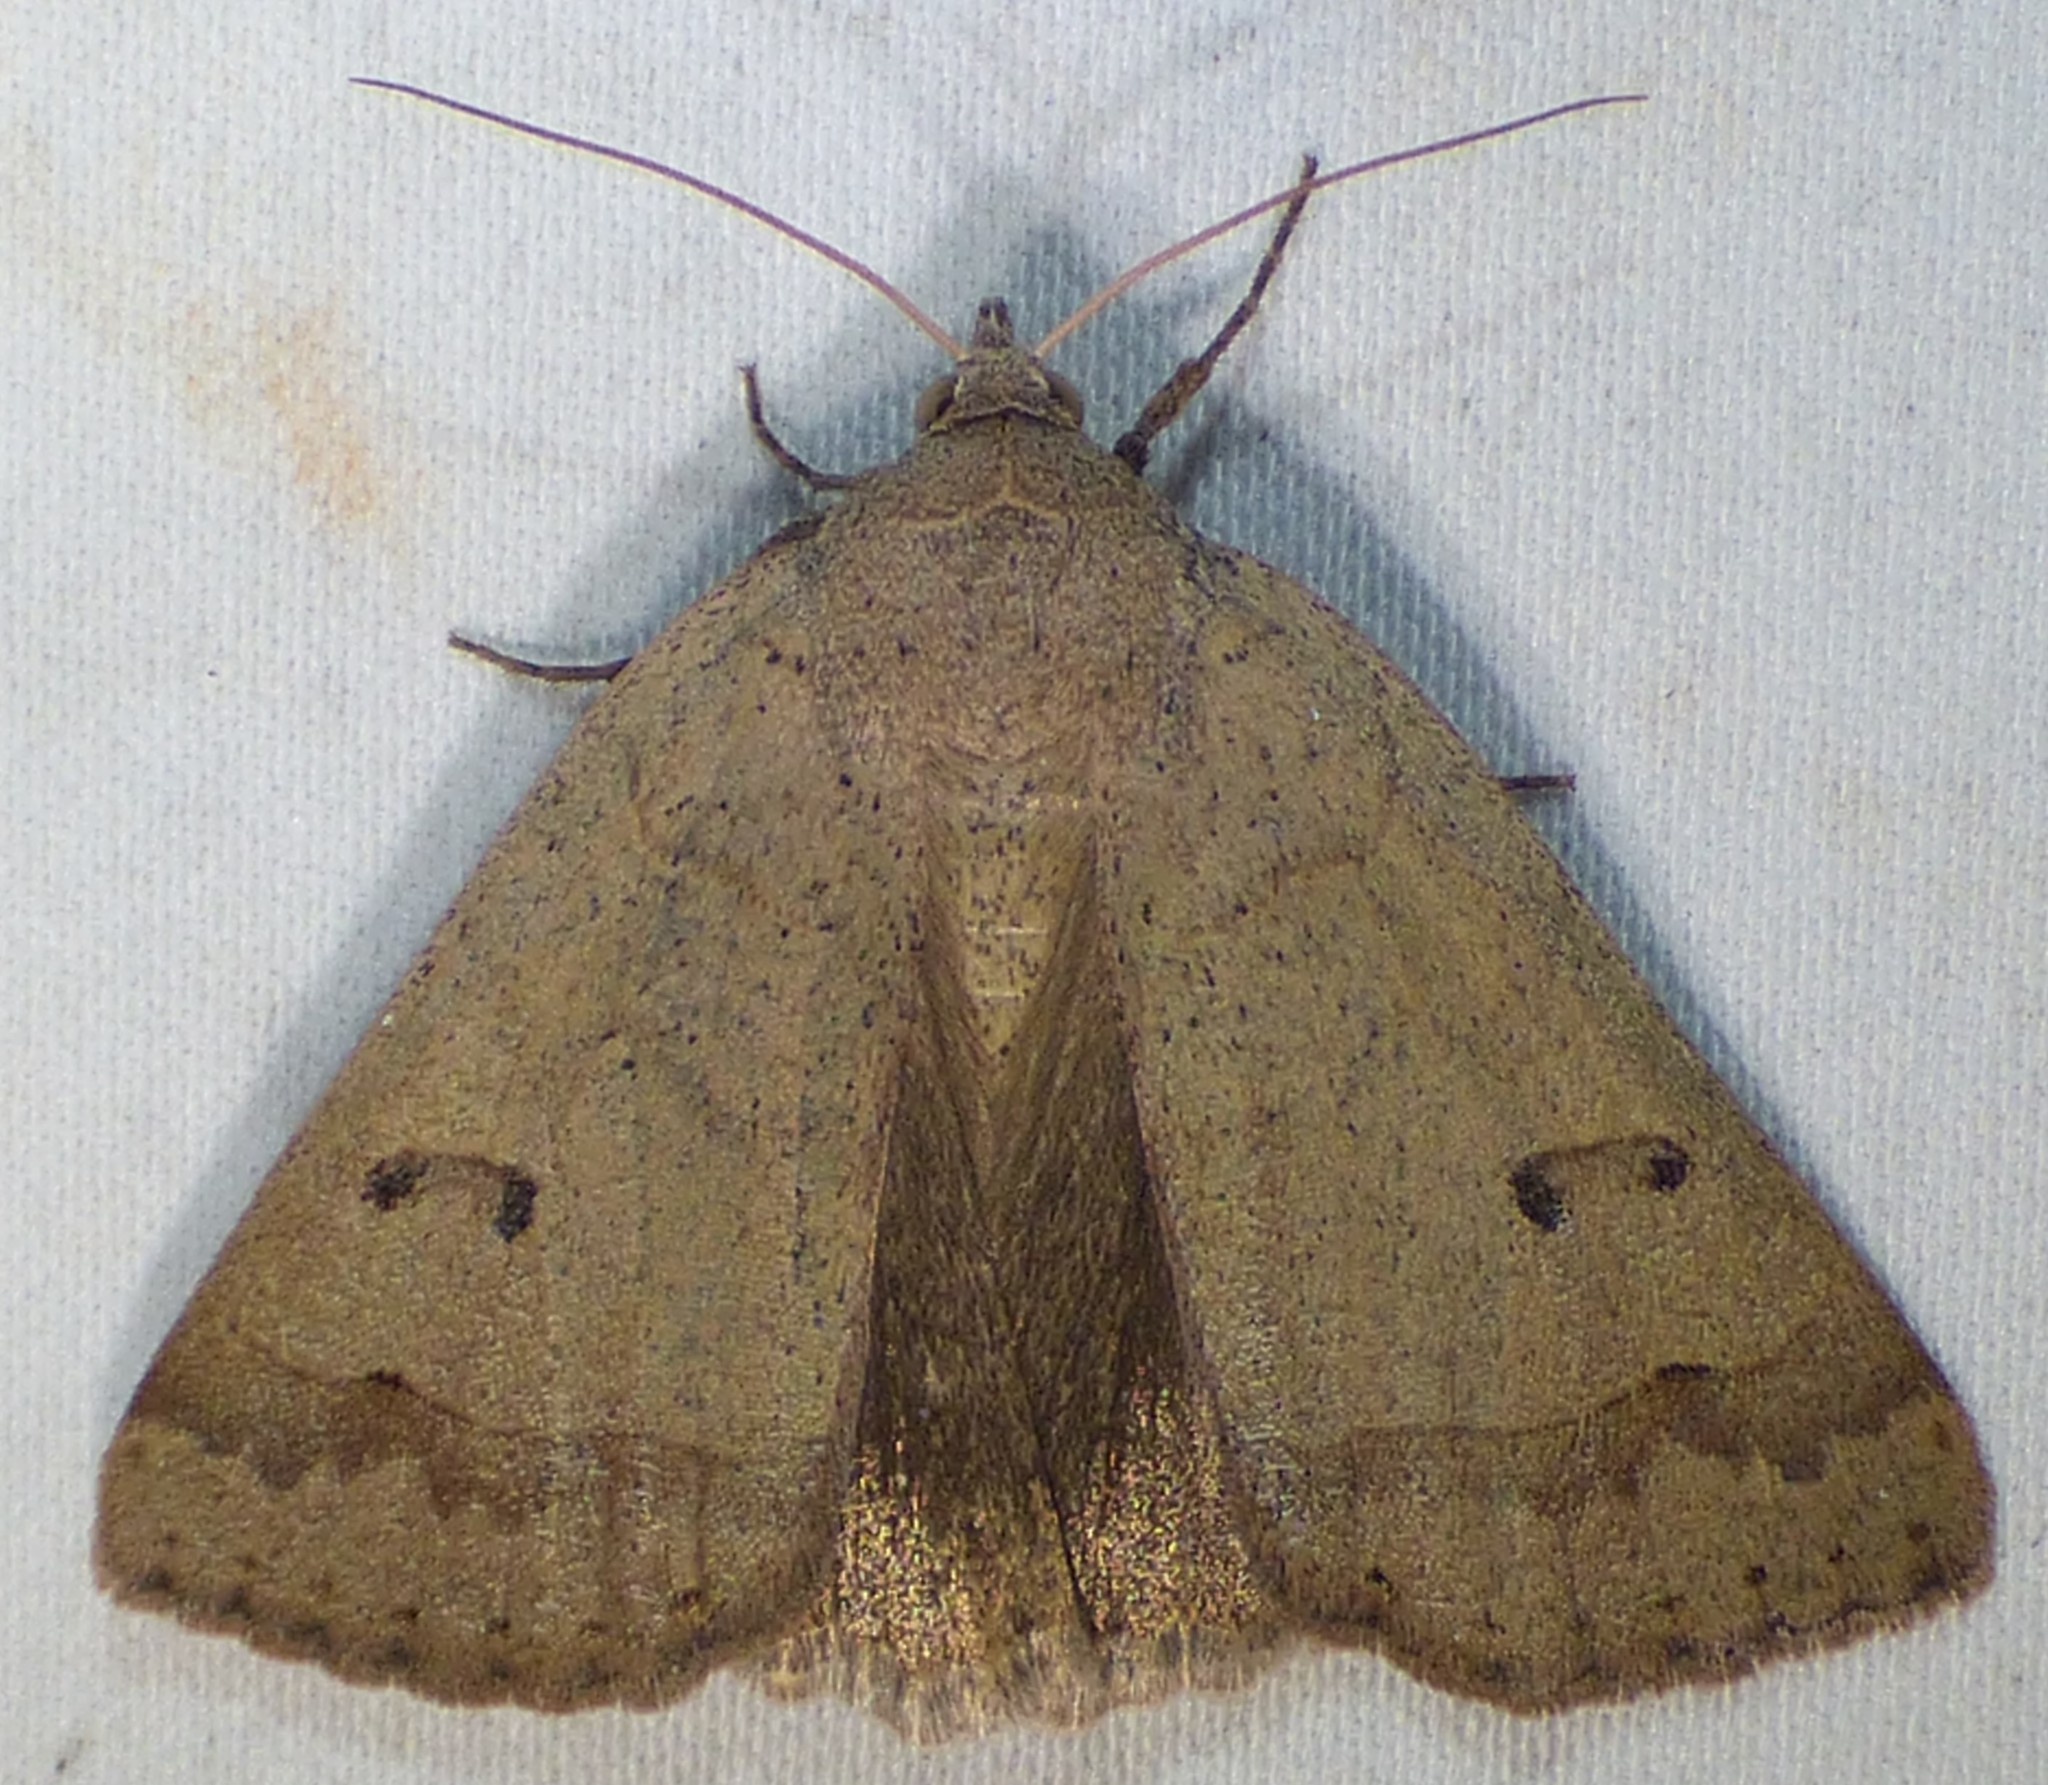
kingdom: Animalia
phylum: Arthropoda
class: Insecta
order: Lepidoptera
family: Erebidae
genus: Phoberia
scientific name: Phoberia atomaris
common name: Common oak moth
